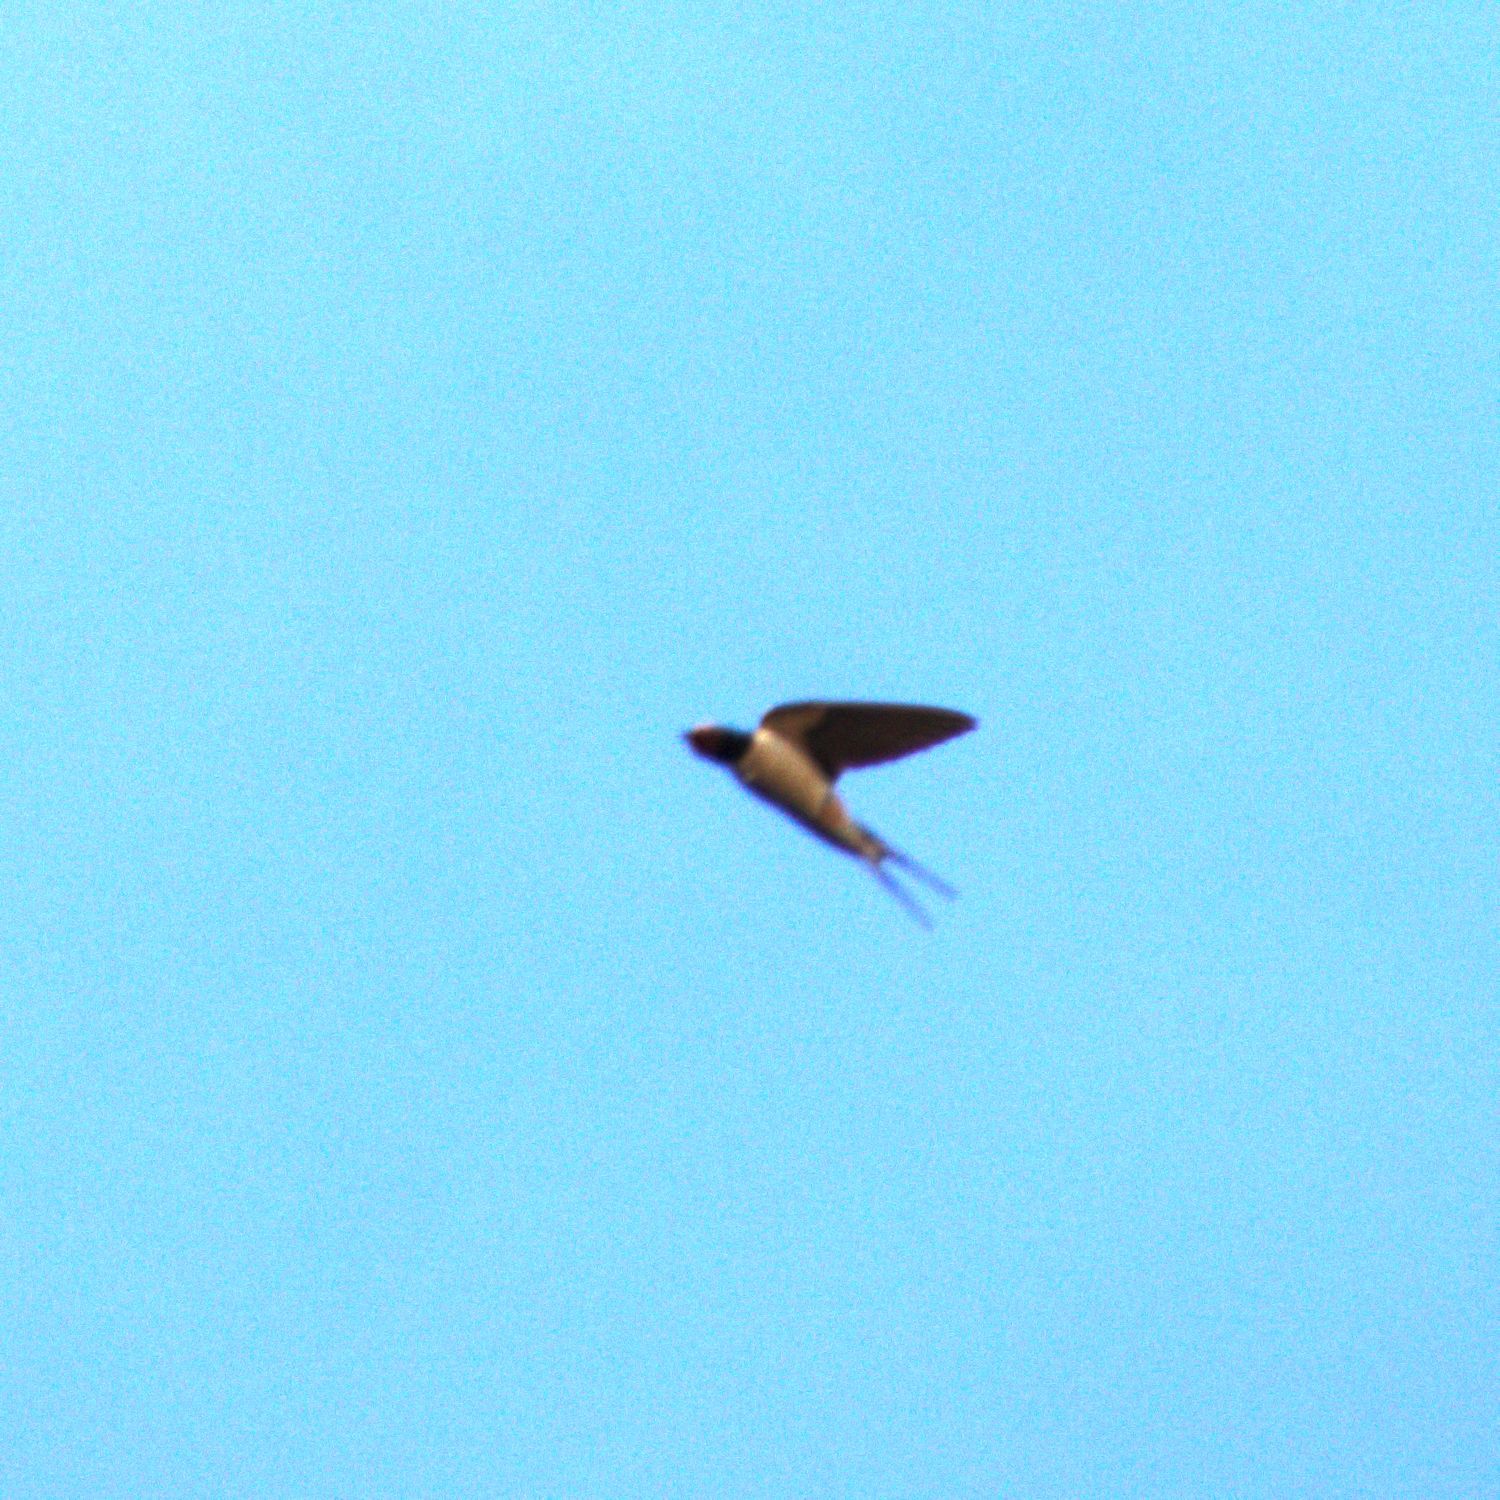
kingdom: Animalia
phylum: Chordata
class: Aves
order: Passeriformes
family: Hirundinidae
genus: Hirundo
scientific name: Hirundo rustica
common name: Barn swallow
